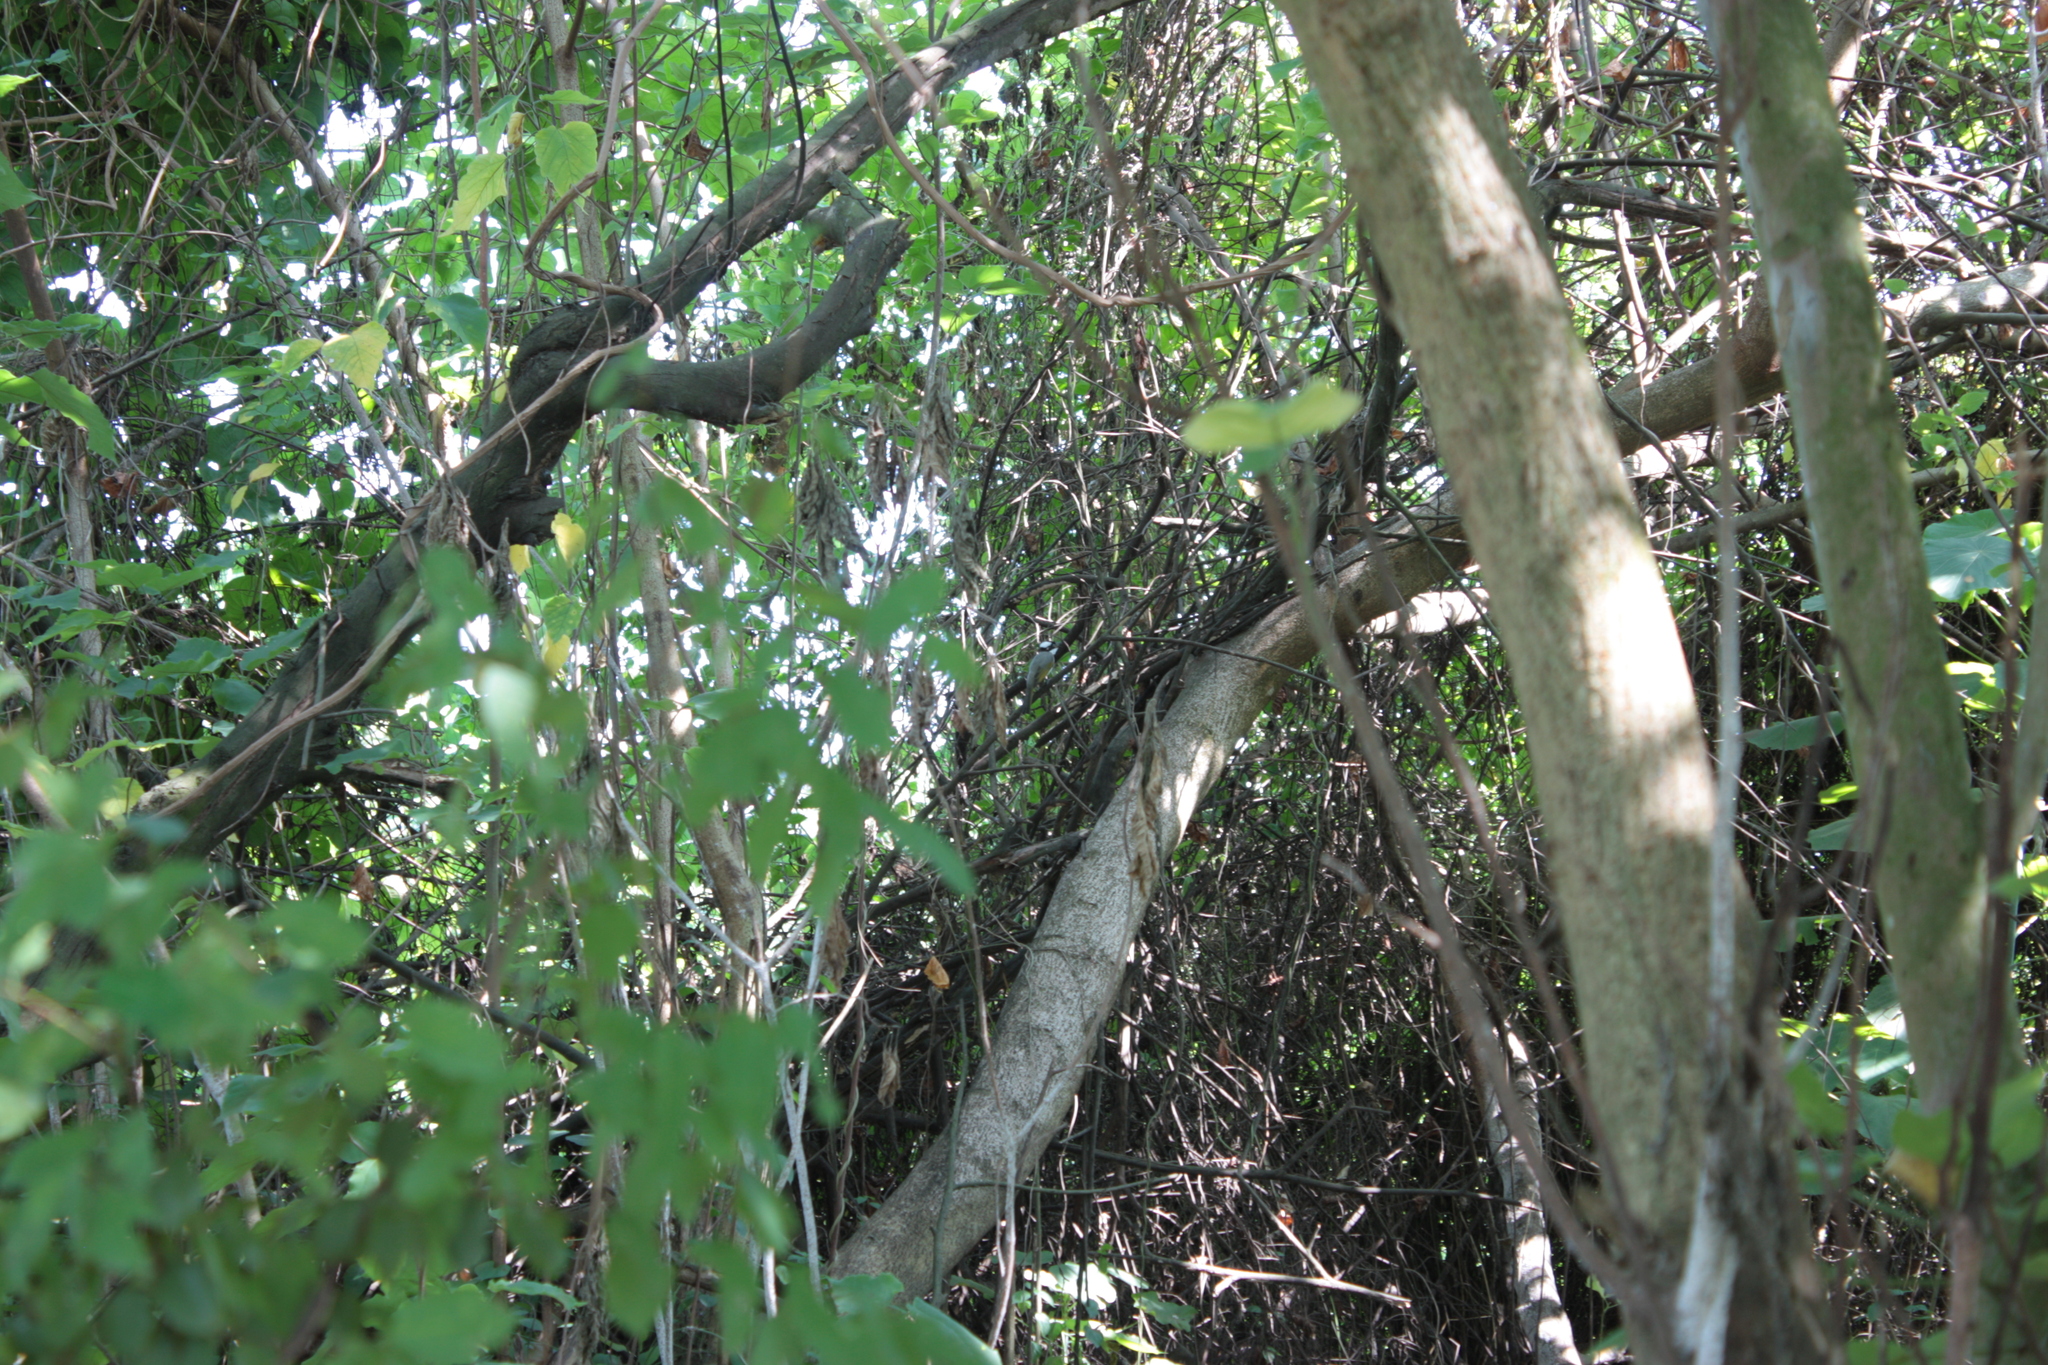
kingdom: Animalia
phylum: Chordata
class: Aves
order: Passeriformes
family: Pycnonotidae
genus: Pycnonotus
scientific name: Pycnonotus sinensis
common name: Light-vented bulbul
